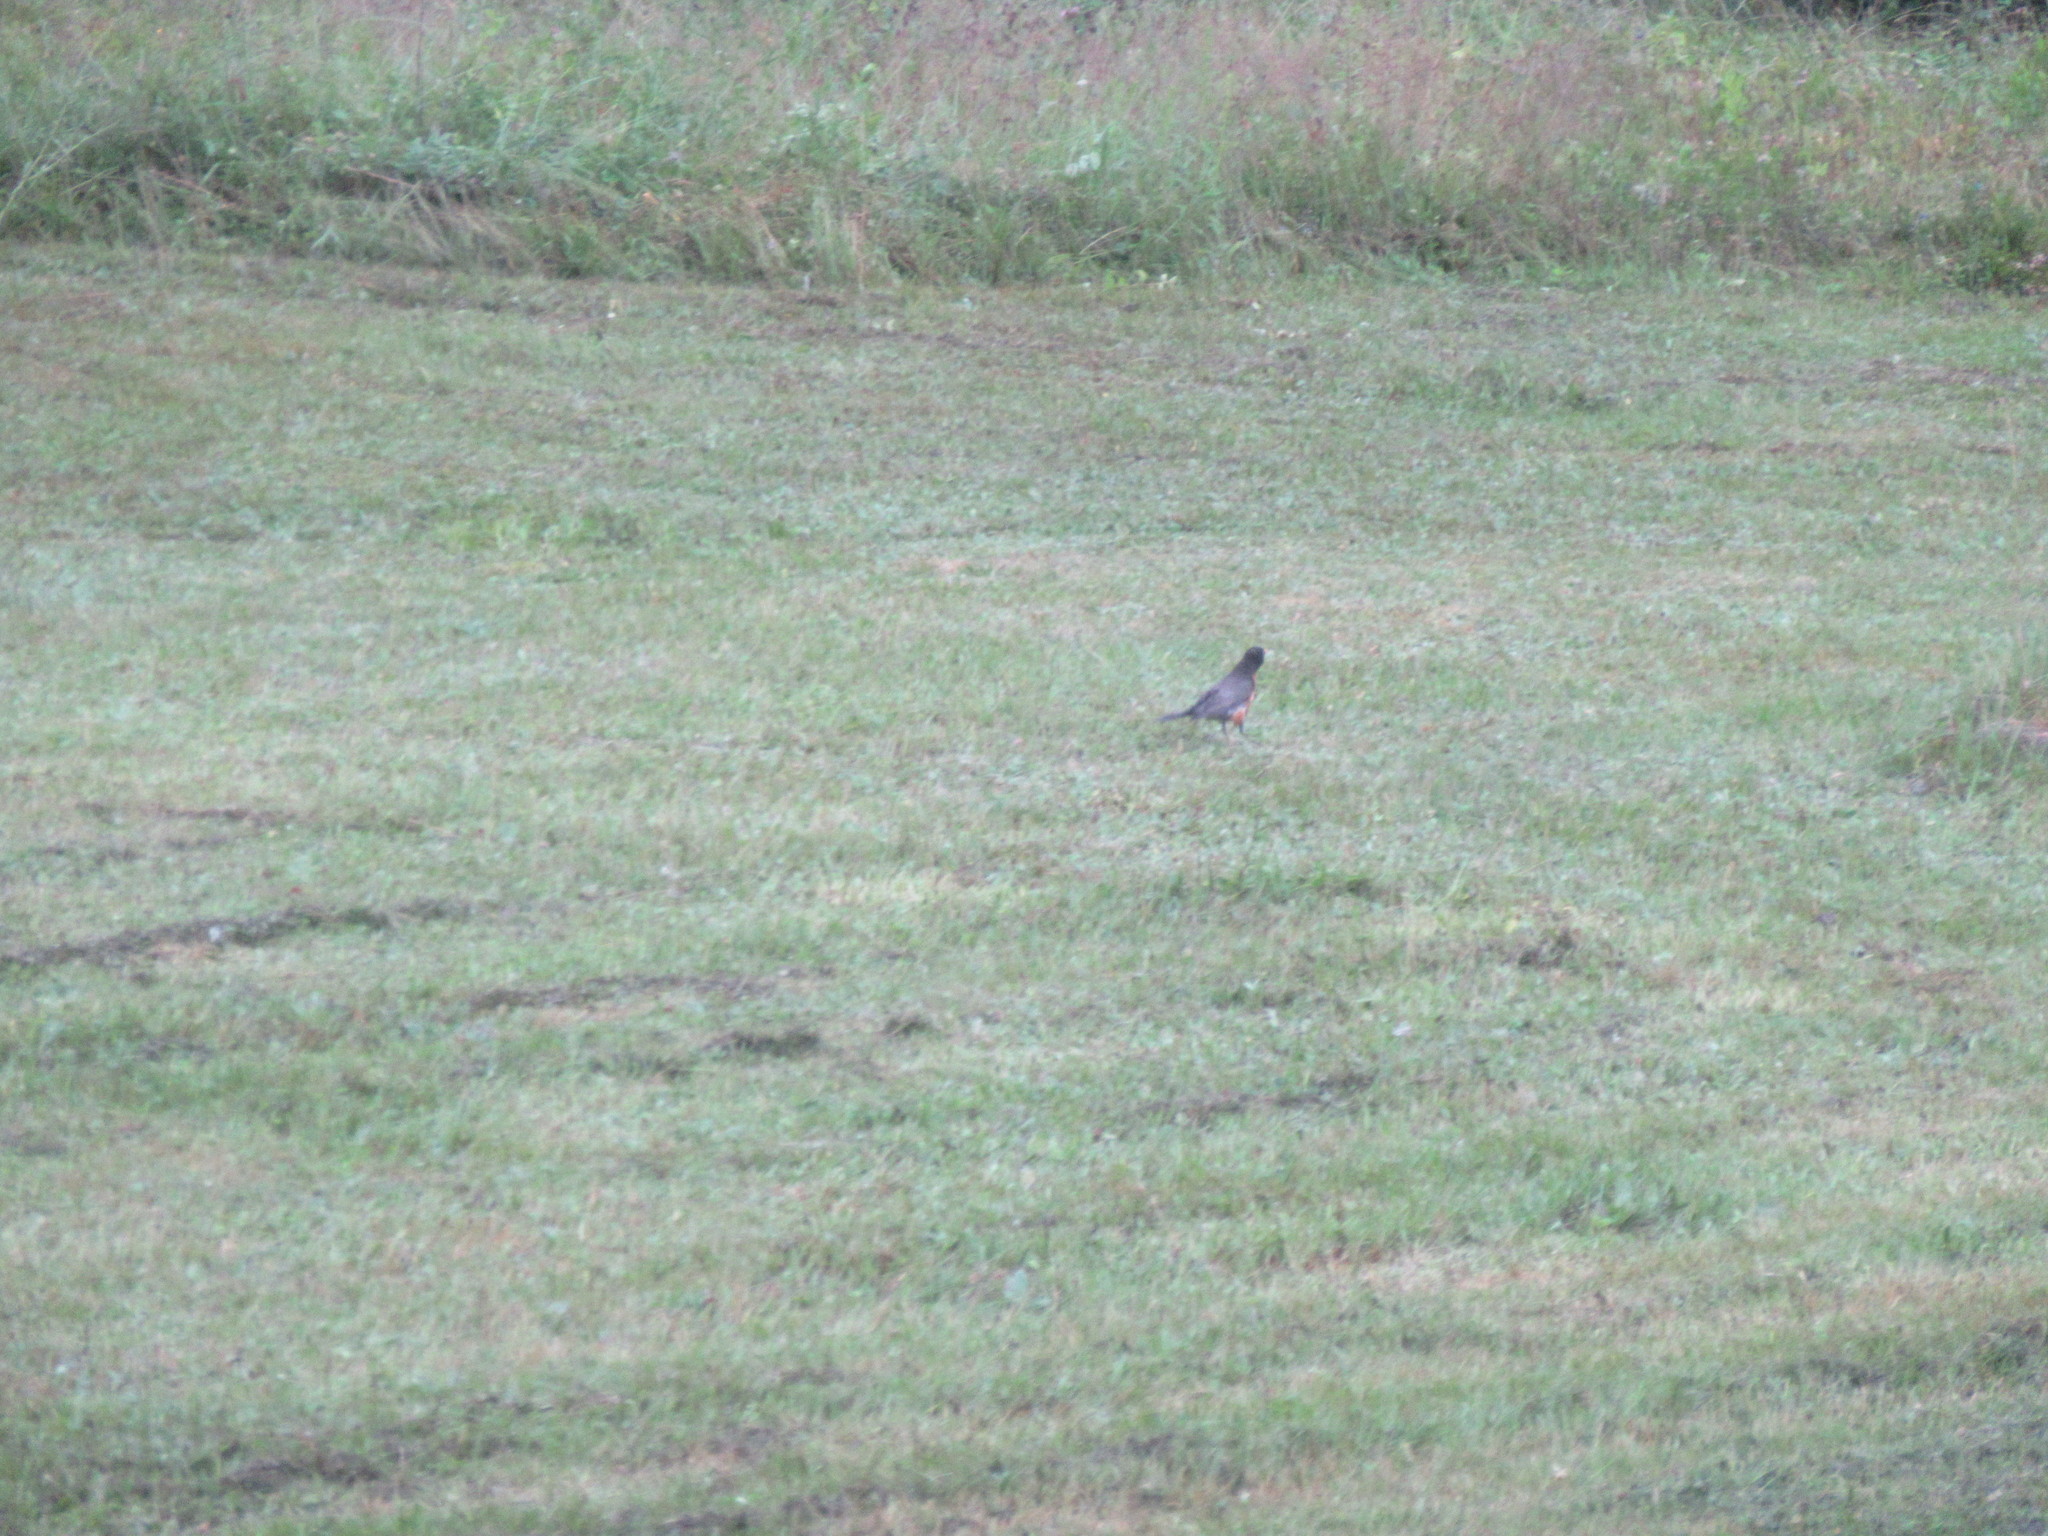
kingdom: Animalia
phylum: Chordata
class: Aves
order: Passeriformes
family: Turdidae
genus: Turdus
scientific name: Turdus migratorius
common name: American robin
